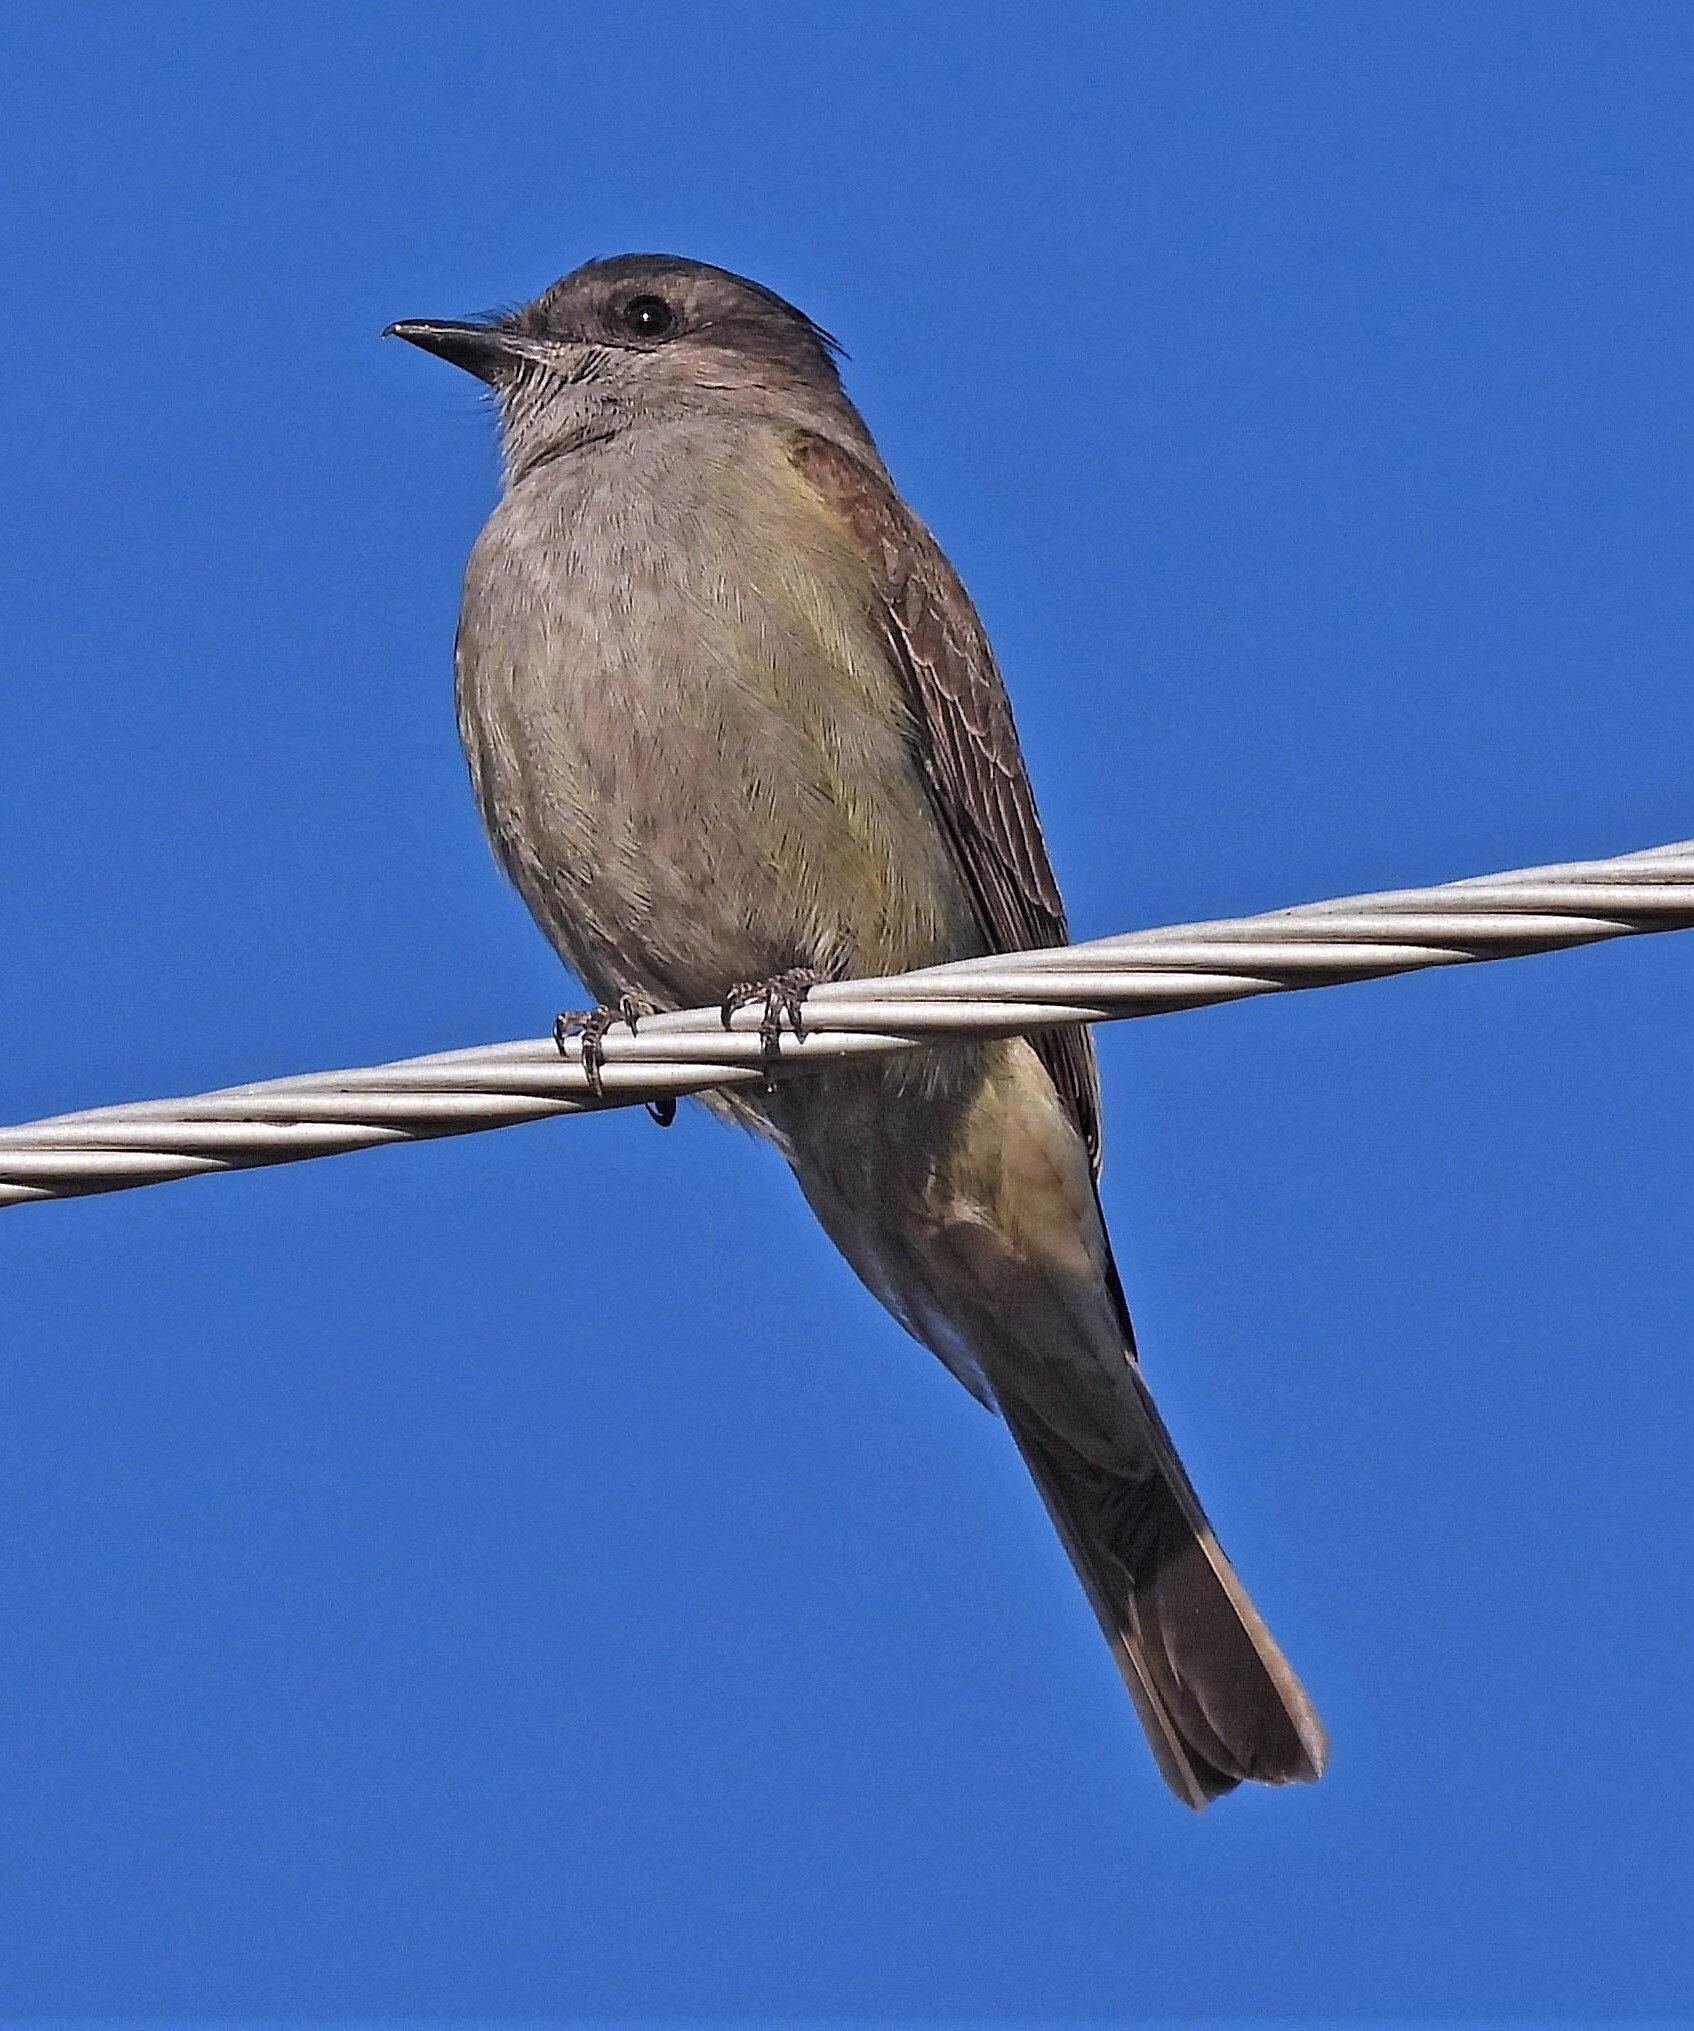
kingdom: Animalia
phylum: Chordata
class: Aves
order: Passeriformes
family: Tyrannidae
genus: Empidonomus
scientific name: Empidonomus aurantioatrocristatus
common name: Crowned slaty flycatcher
